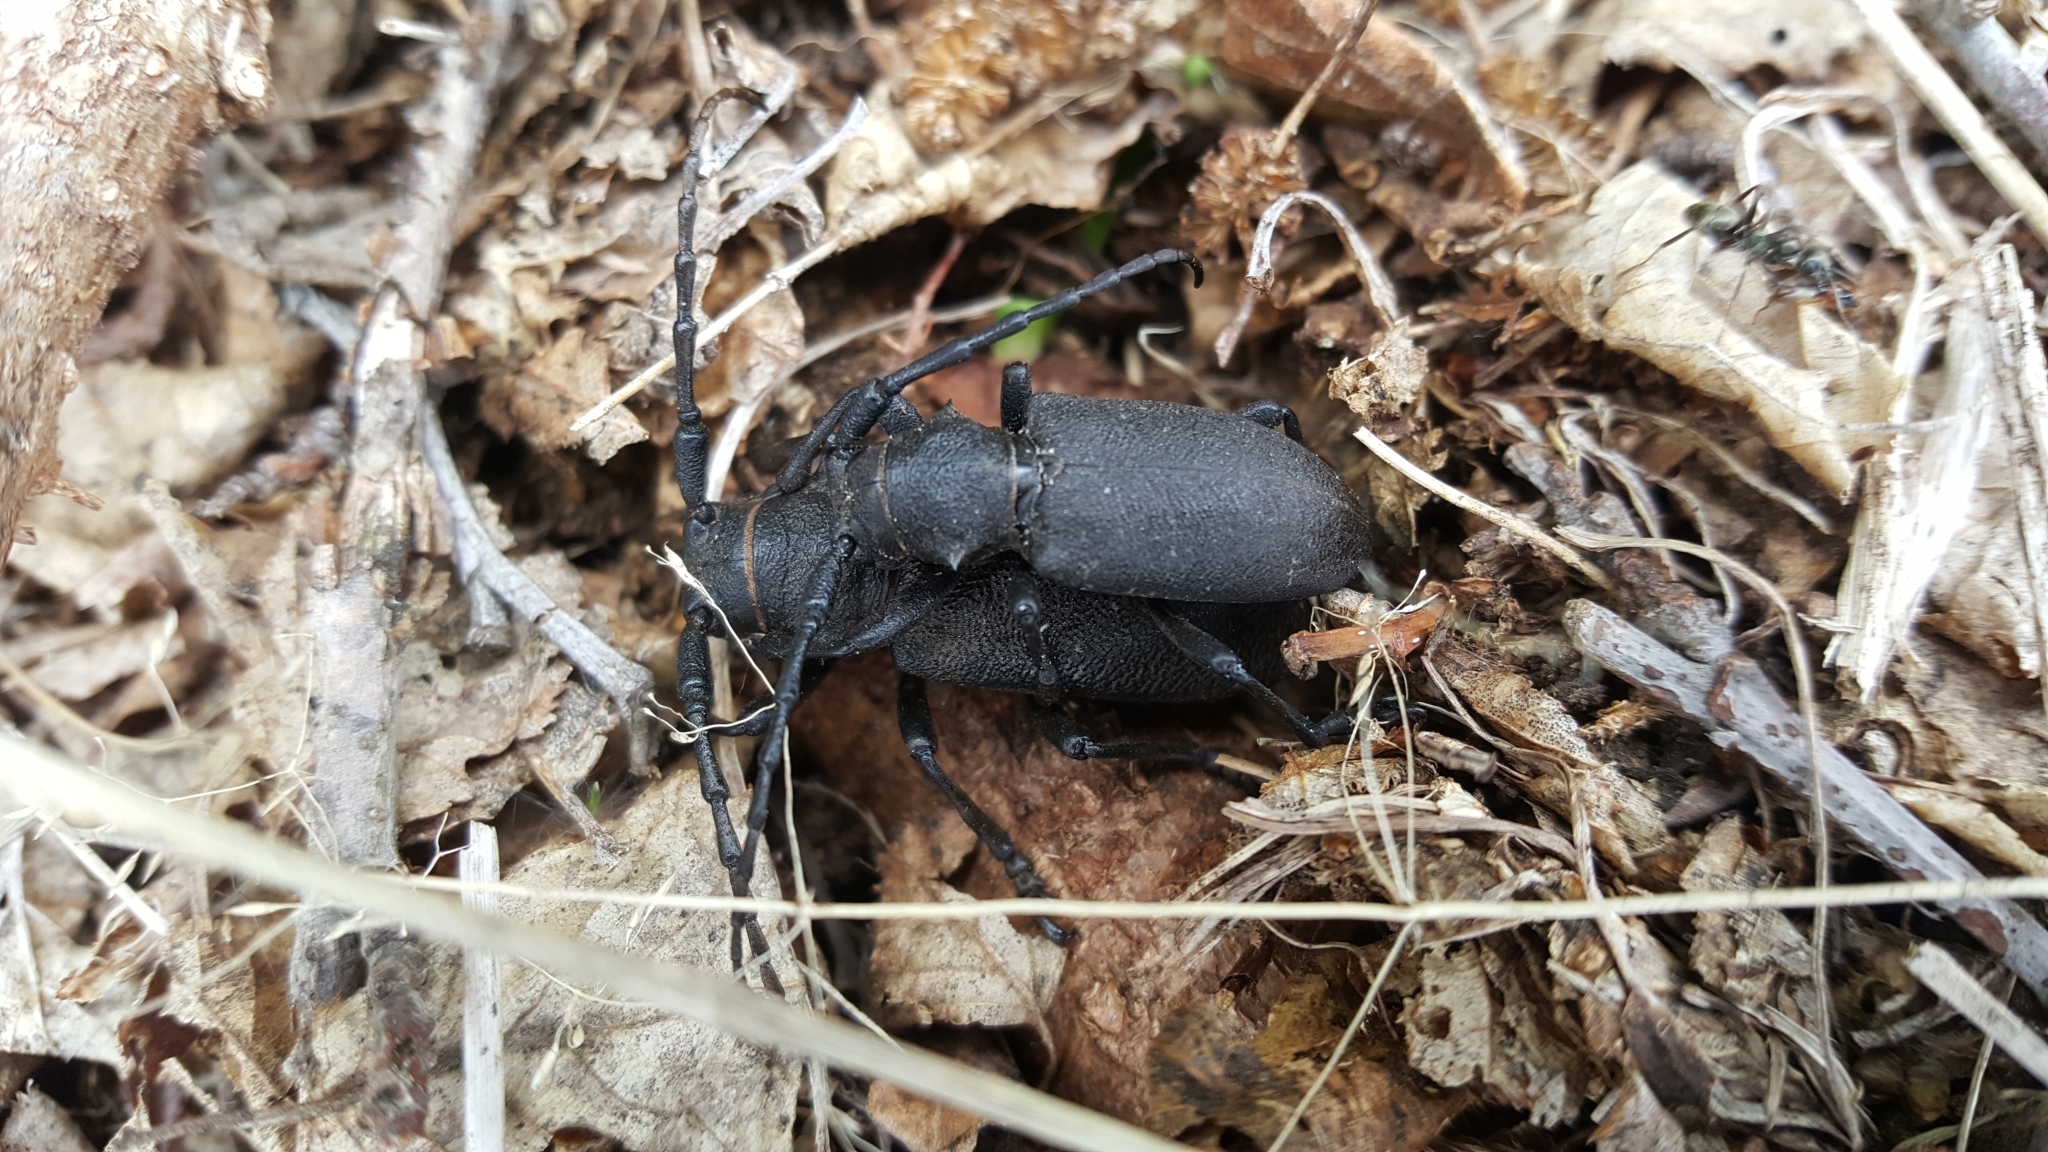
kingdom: Animalia
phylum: Arthropoda
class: Insecta
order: Coleoptera
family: Cerambycidae
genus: Lamia
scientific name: Lamia textor
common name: Weaver beetle
